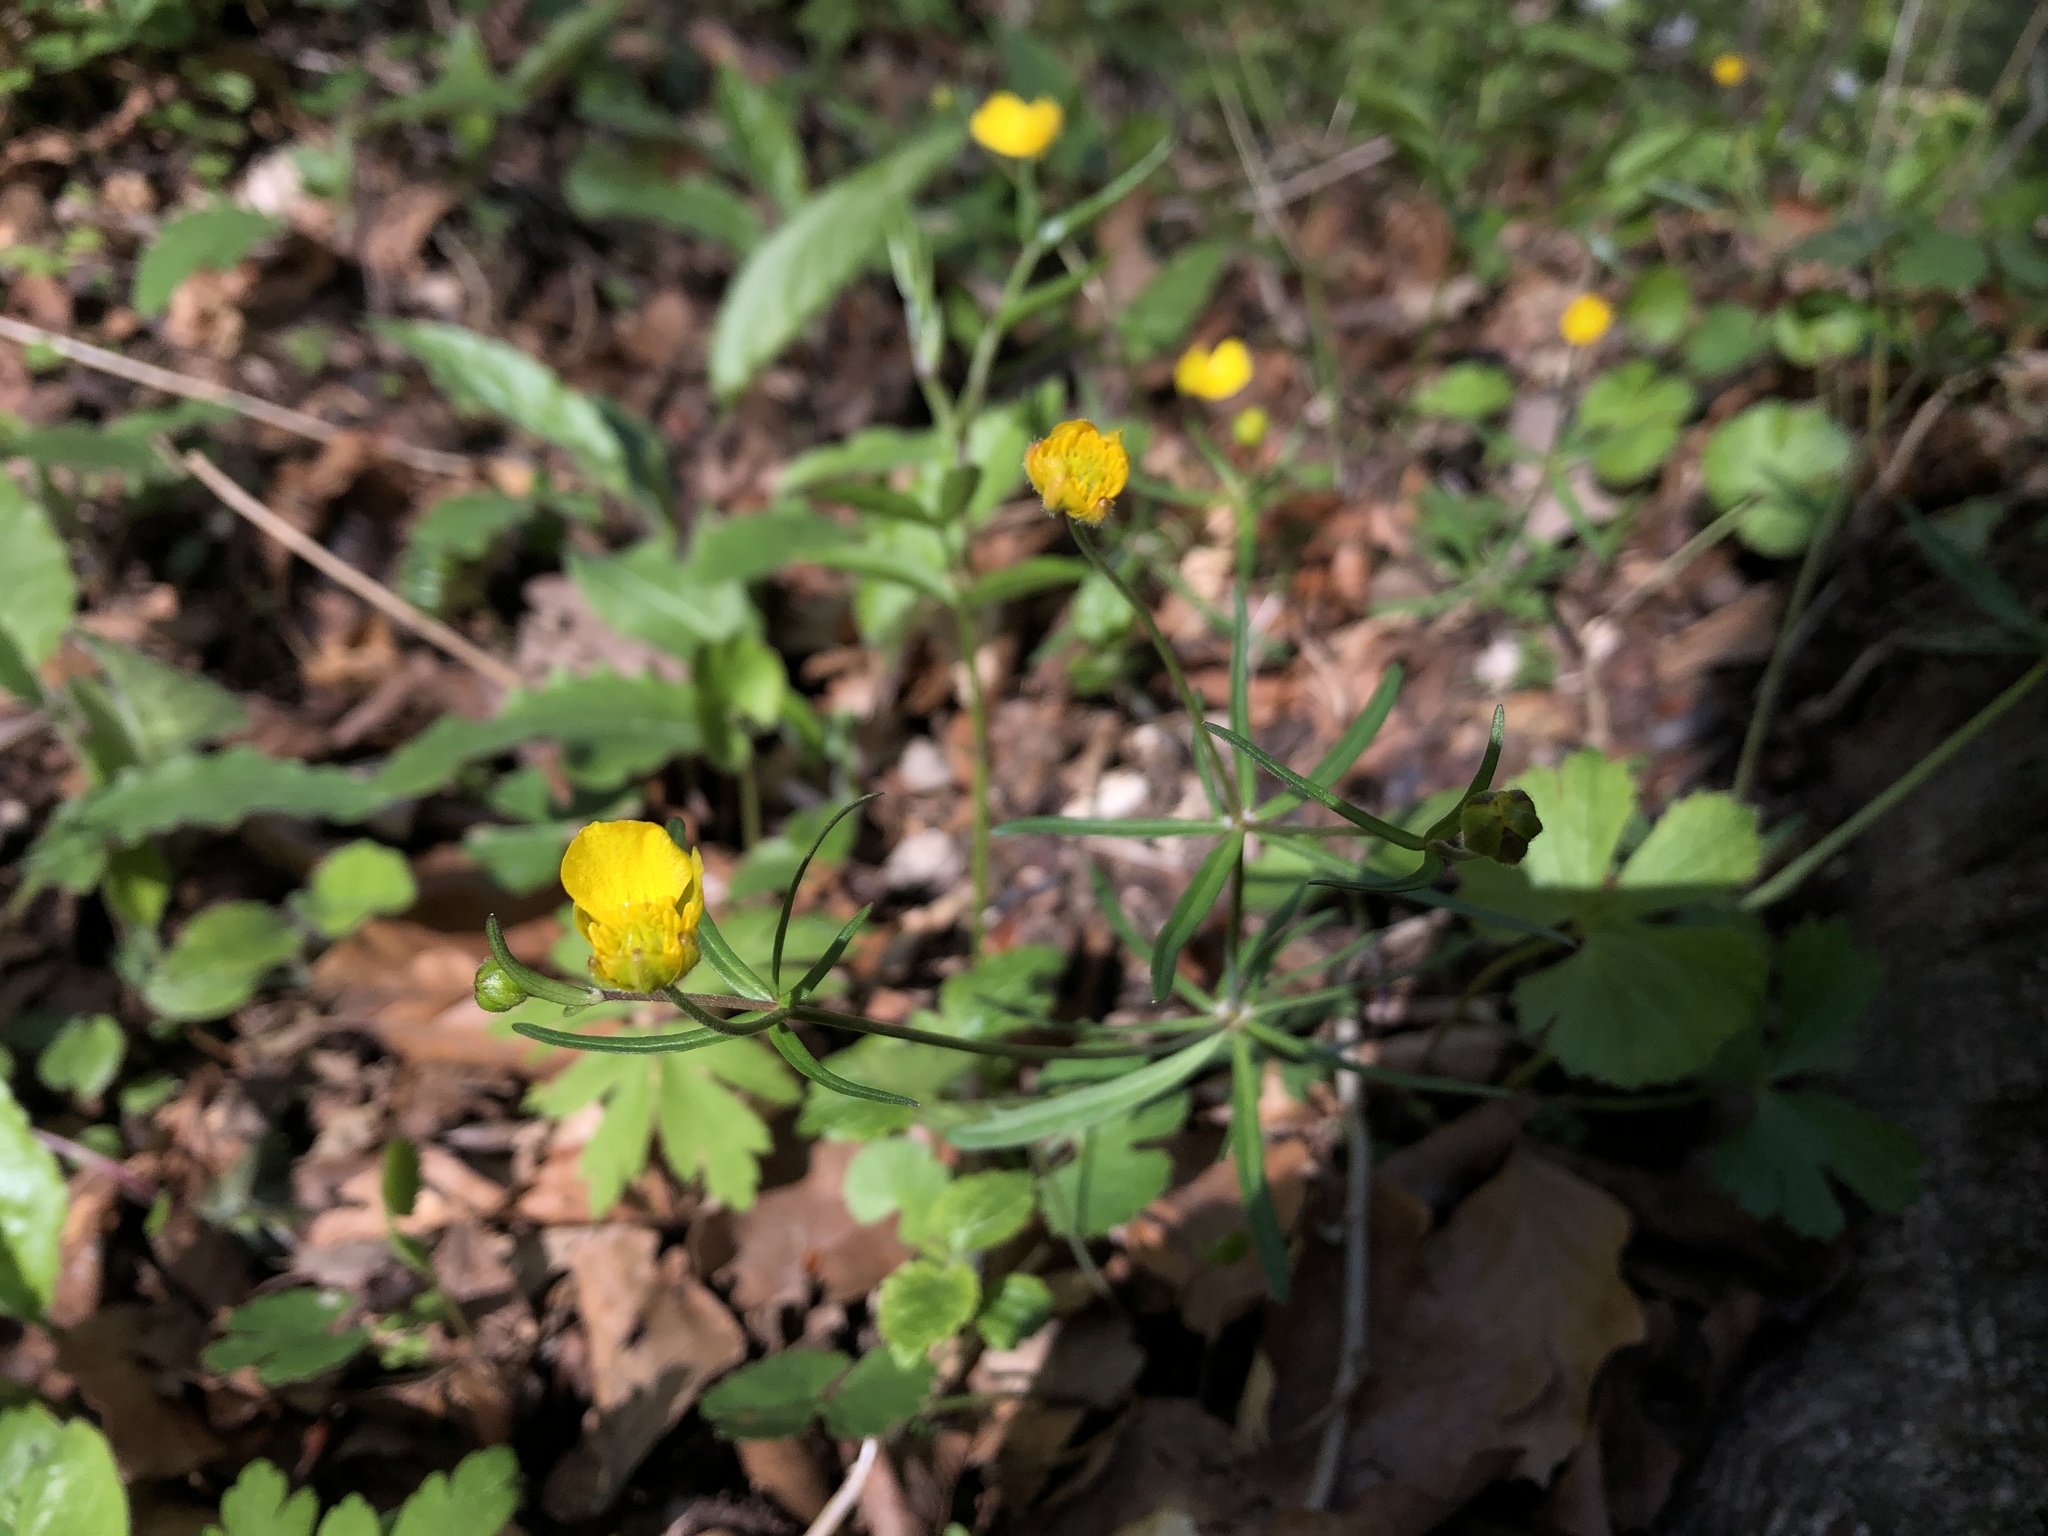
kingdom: Plantae
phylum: Tracheophyta
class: Magnoliopsida
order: Ranunculales
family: Ranunculaceae
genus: Ranunculus
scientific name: Ranunculus auricomus
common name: Goldilocks buttercup
